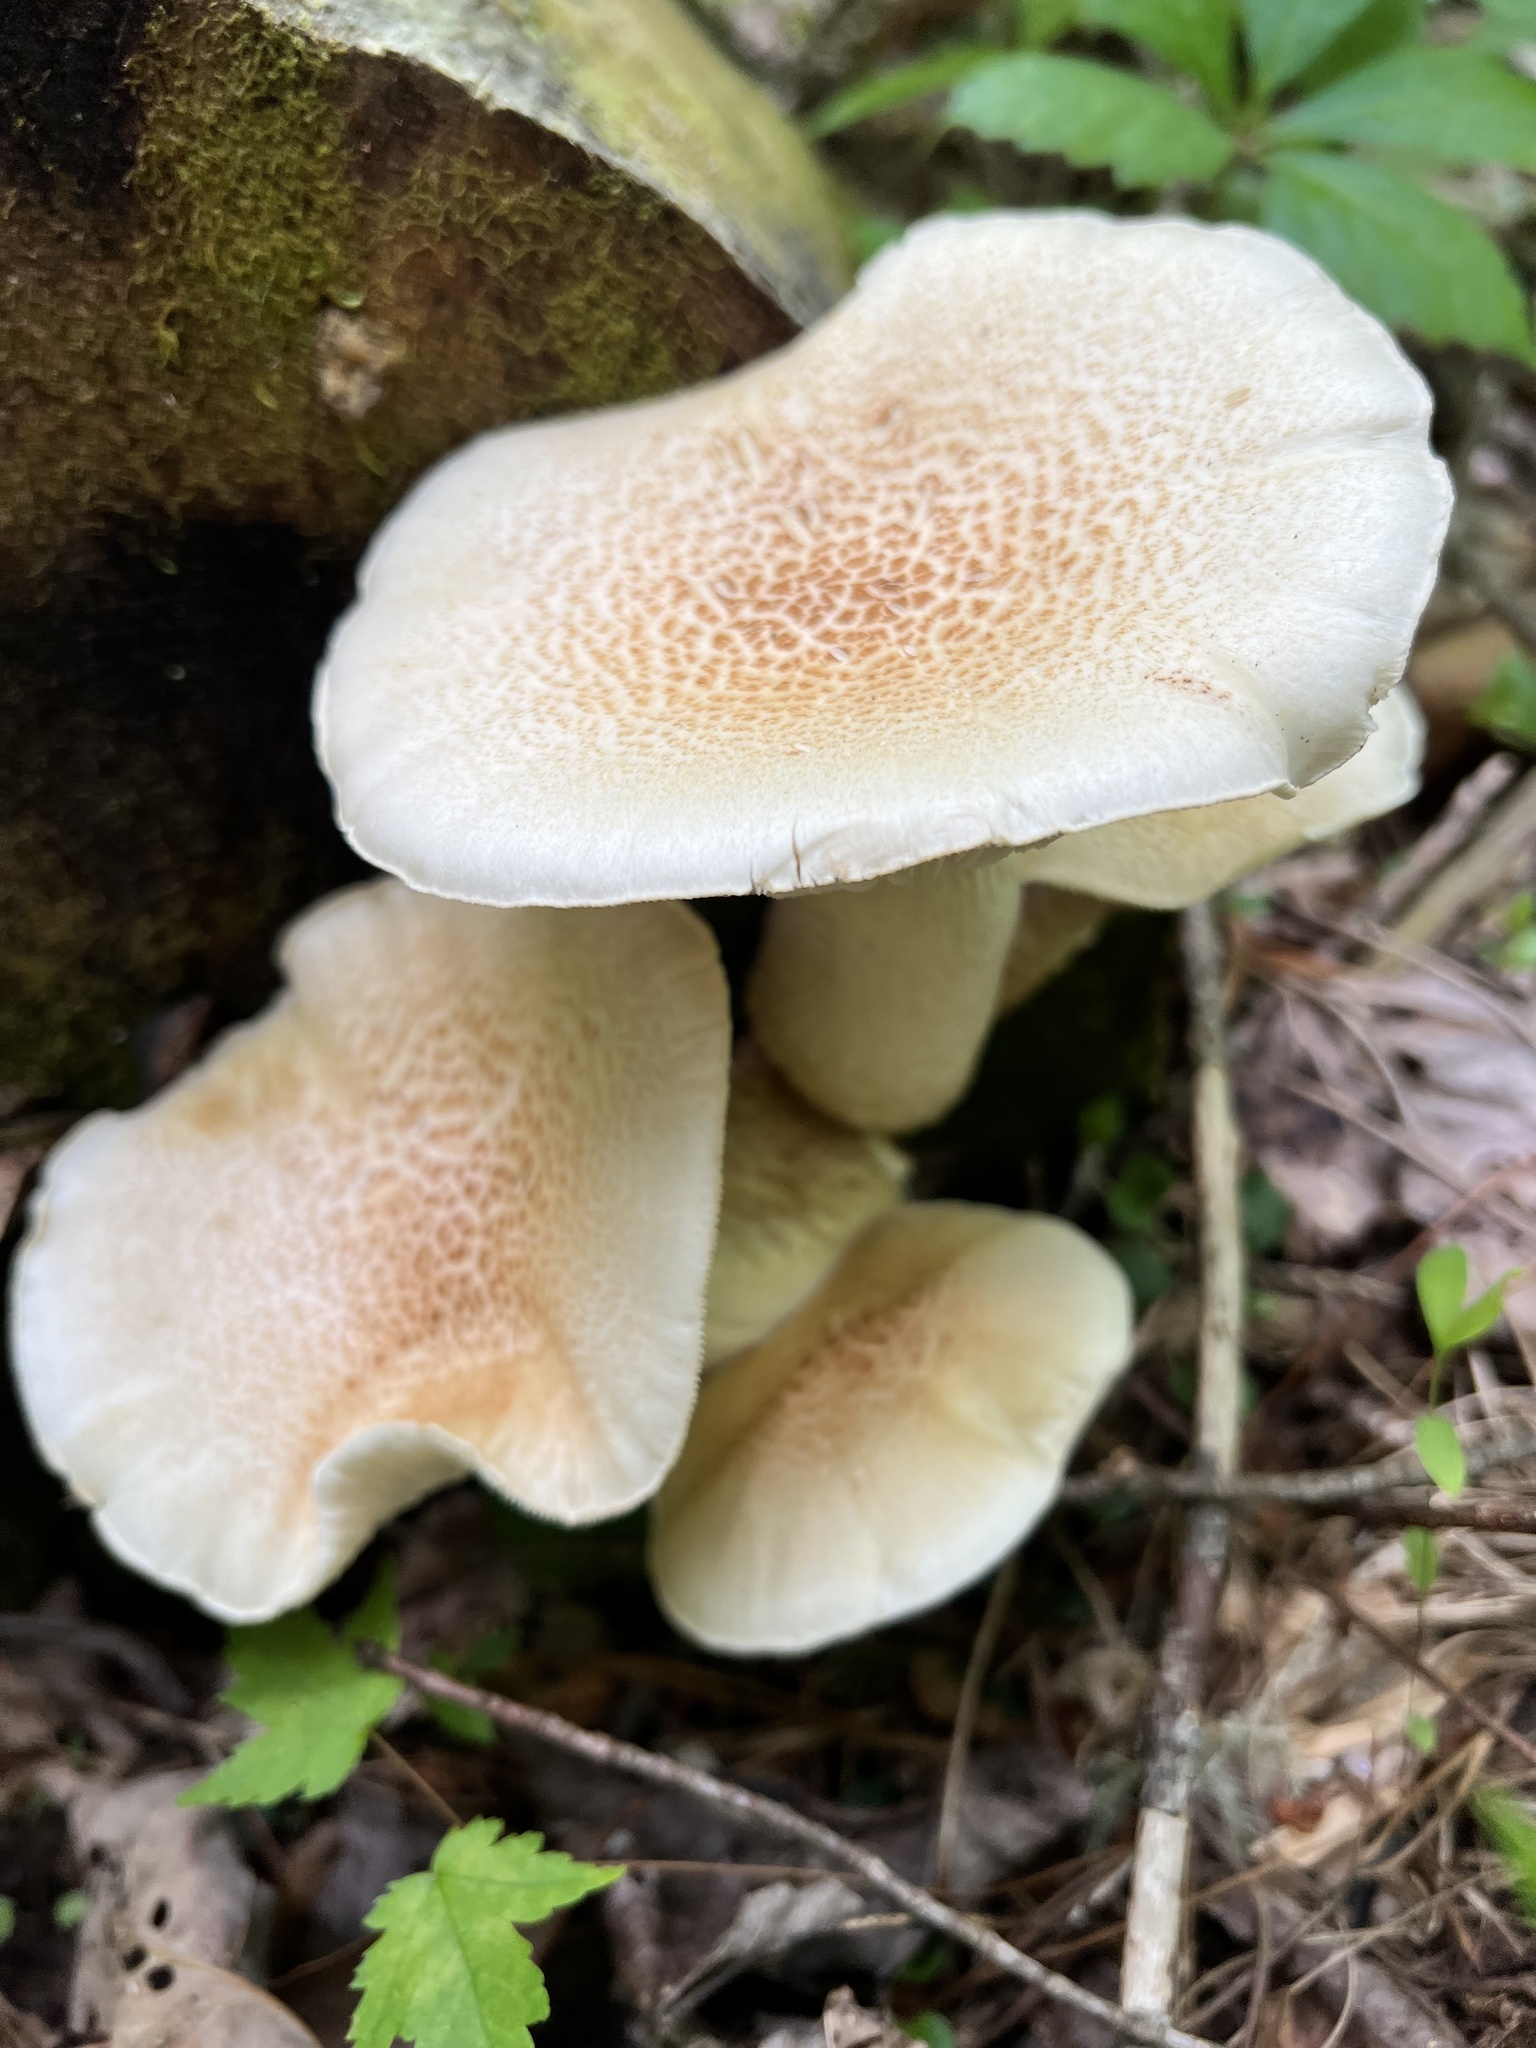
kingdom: Fungi
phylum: Basidiomycota
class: Agaricomycetes
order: Gloeophyllales
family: Gloeophyllaceae
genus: Neolentinus
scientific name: Neolentinus lepideus
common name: Scaly sawgill
